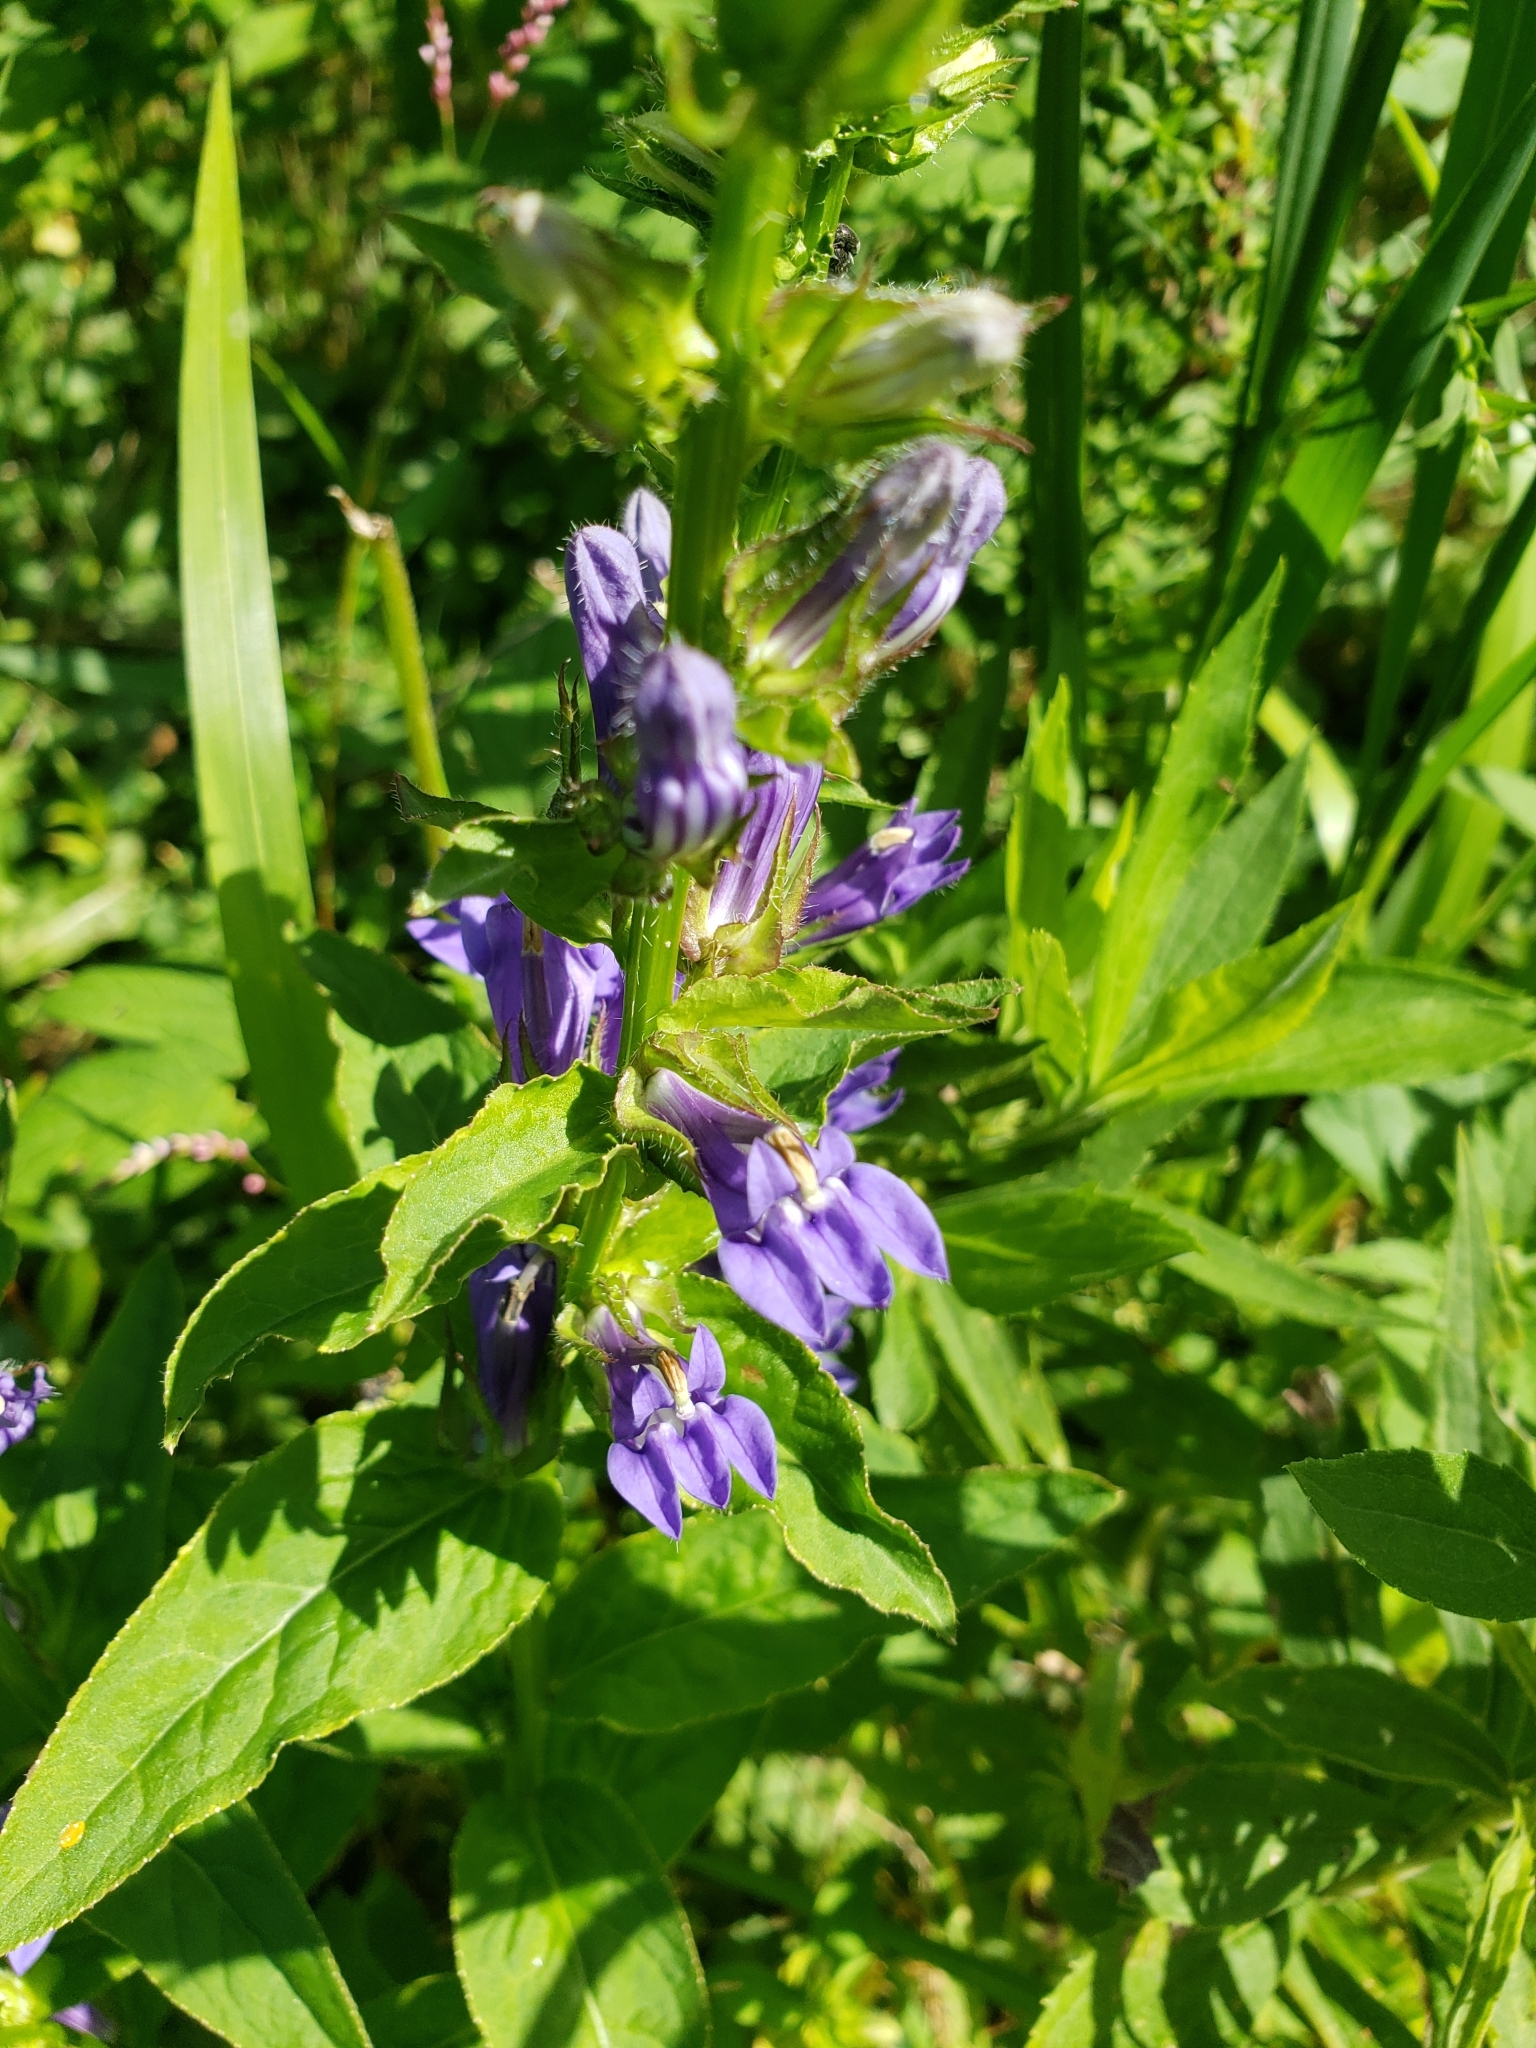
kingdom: Plantae
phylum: Tracheophyta
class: Magnoliopsida
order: Asterales
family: Campanulaceae
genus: Lobelia
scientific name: Lobelia siphilitica
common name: Great lobelia
